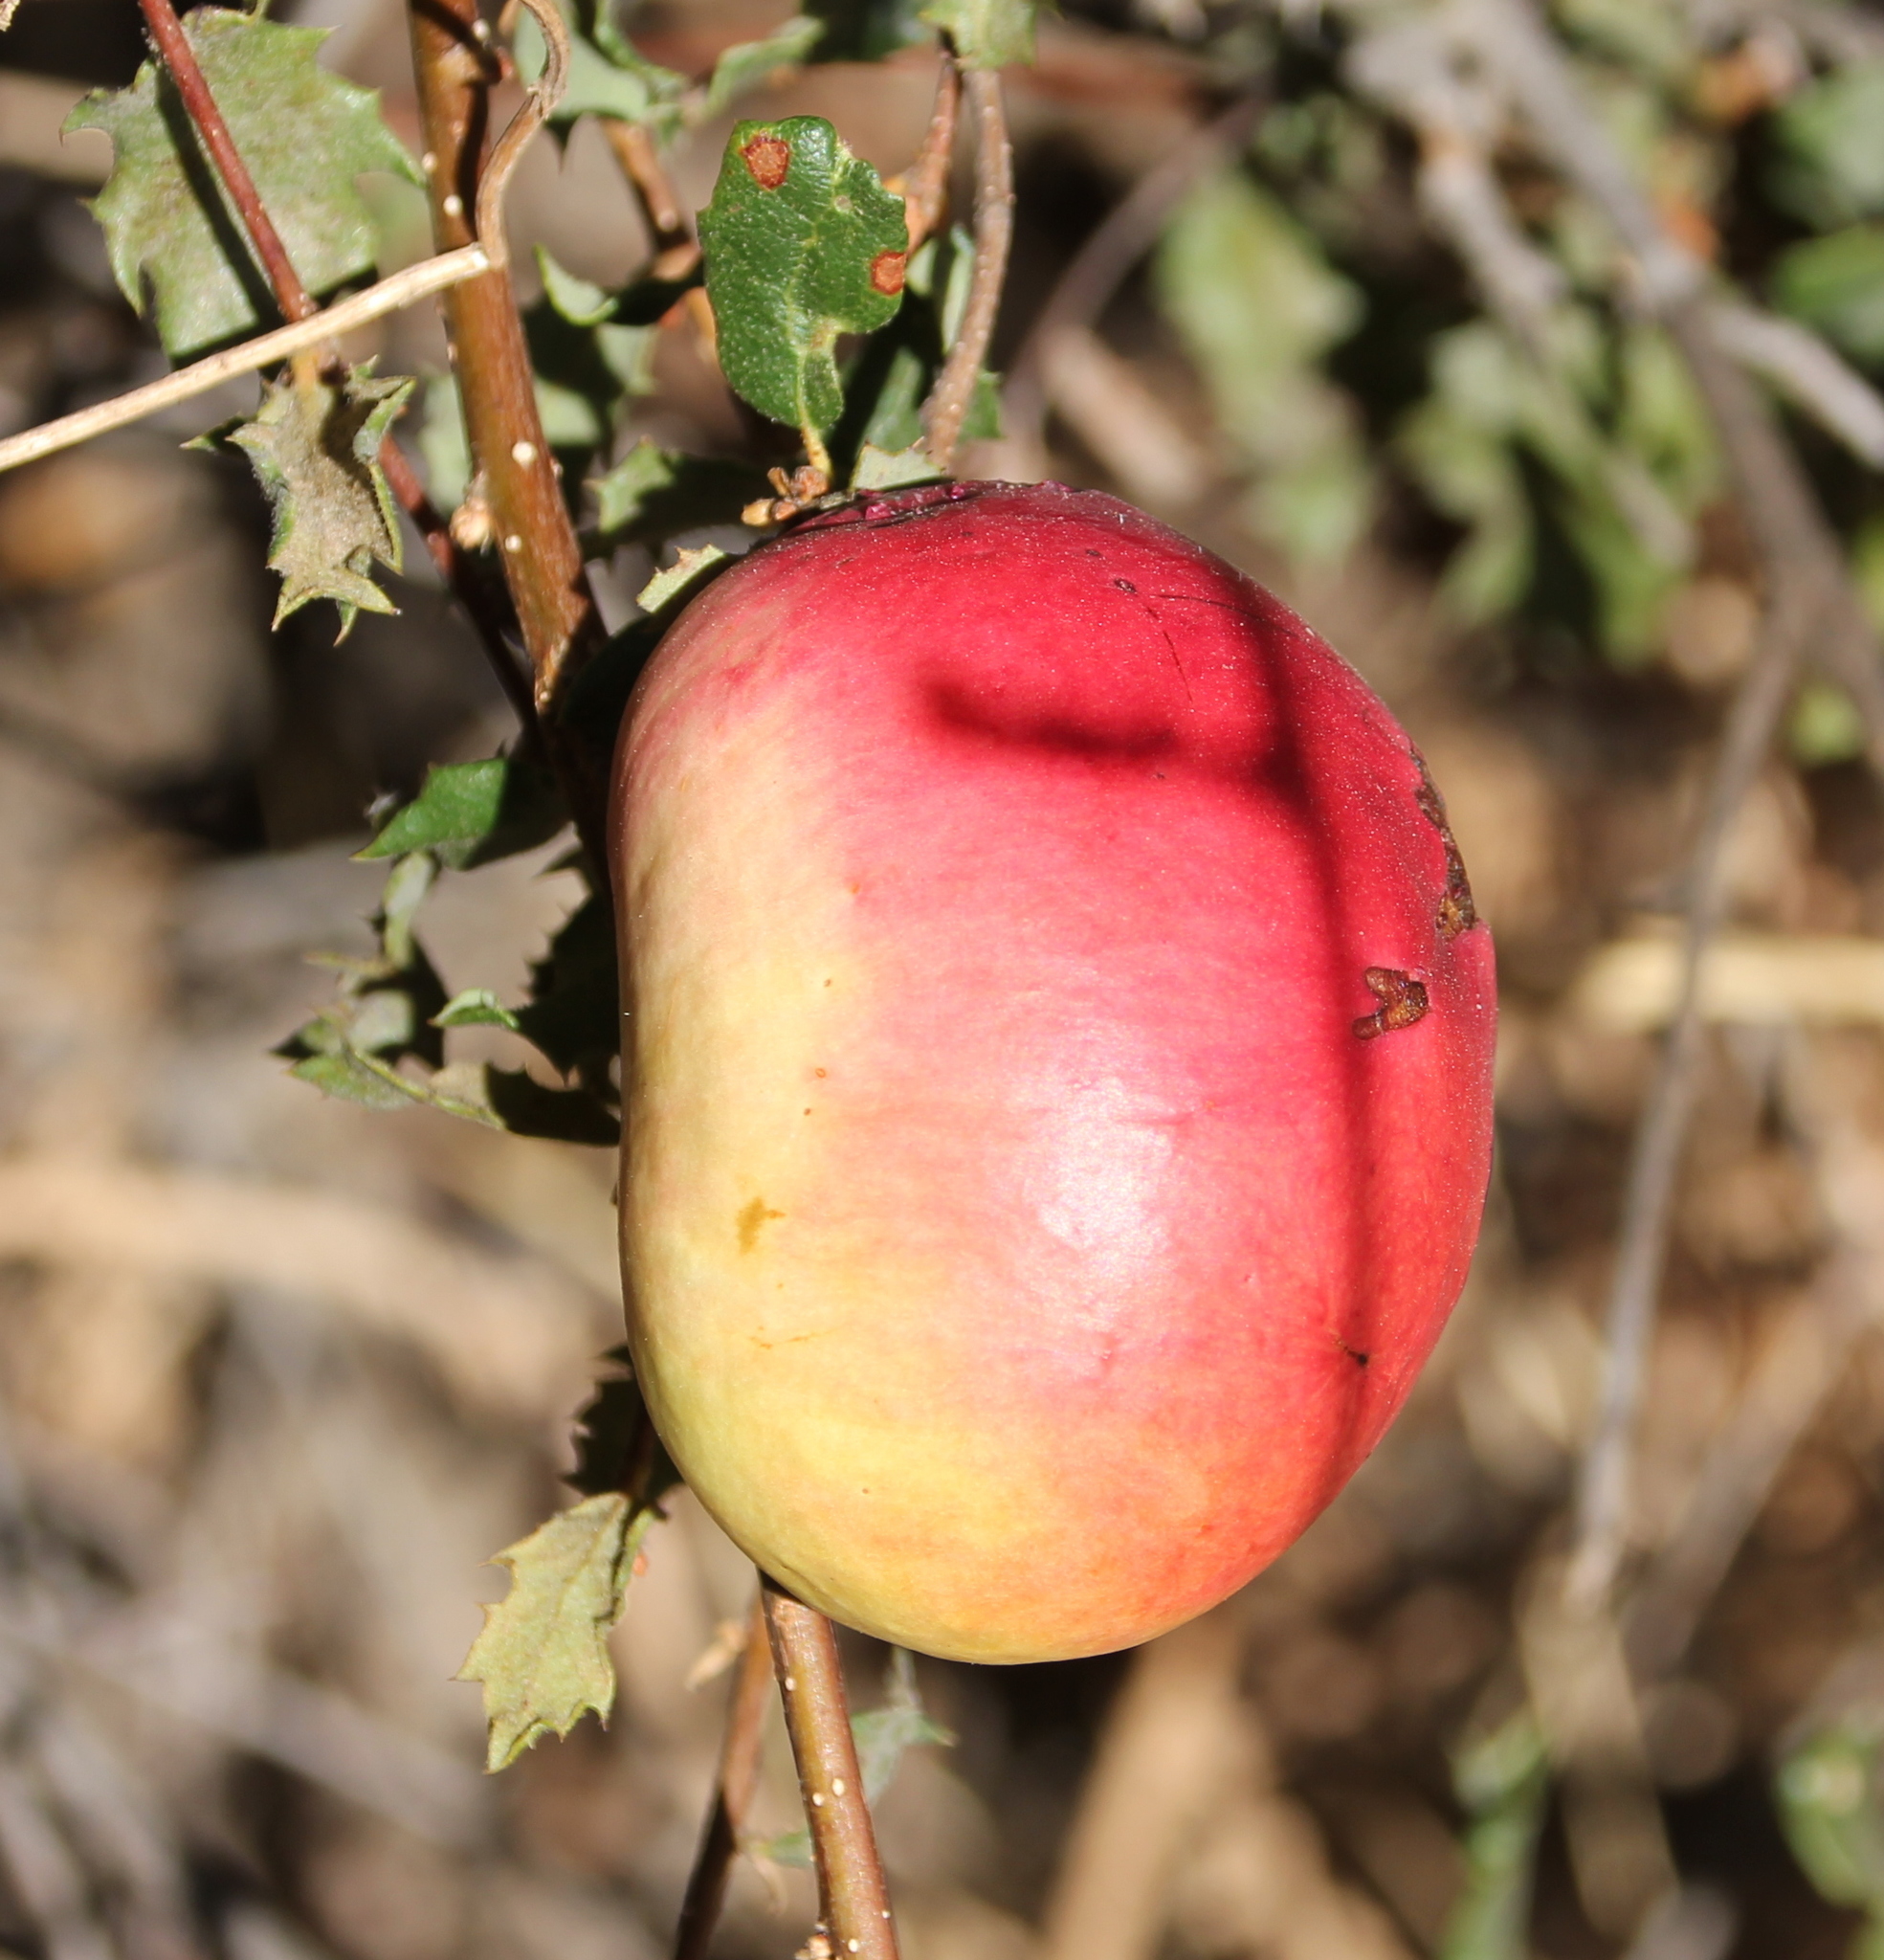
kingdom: Animalia
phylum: Arthropoda
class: Insecta
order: Hymenoptera
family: Cynipidae
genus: Andricus
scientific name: Andricus quercuscalifornicus
